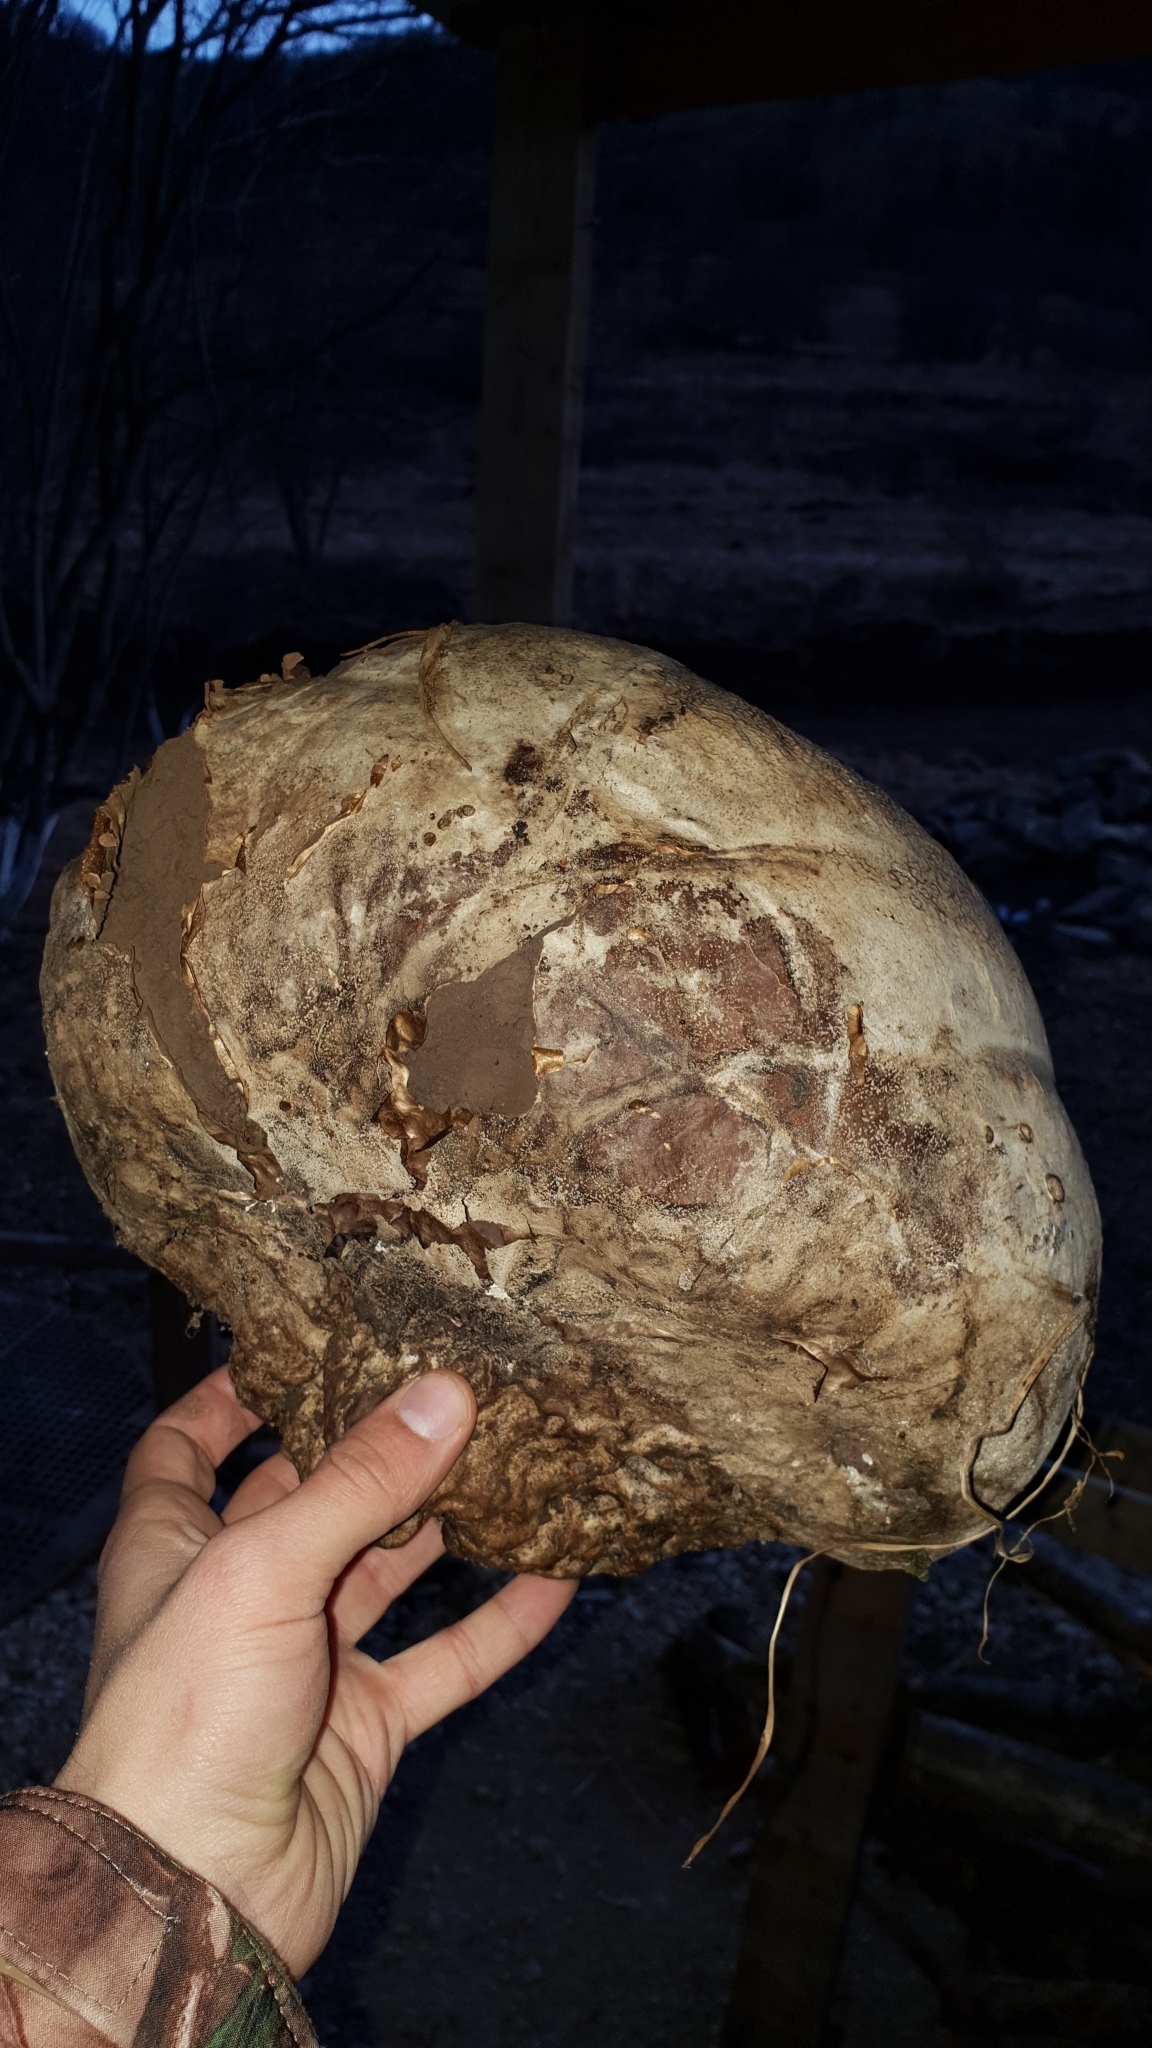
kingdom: Fungi
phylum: Basidiomycota
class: Agaricomycetes
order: Agaricales
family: Lycoperdaceae
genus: Calvatia
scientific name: Calvatia gigantea
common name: Giant puffball
